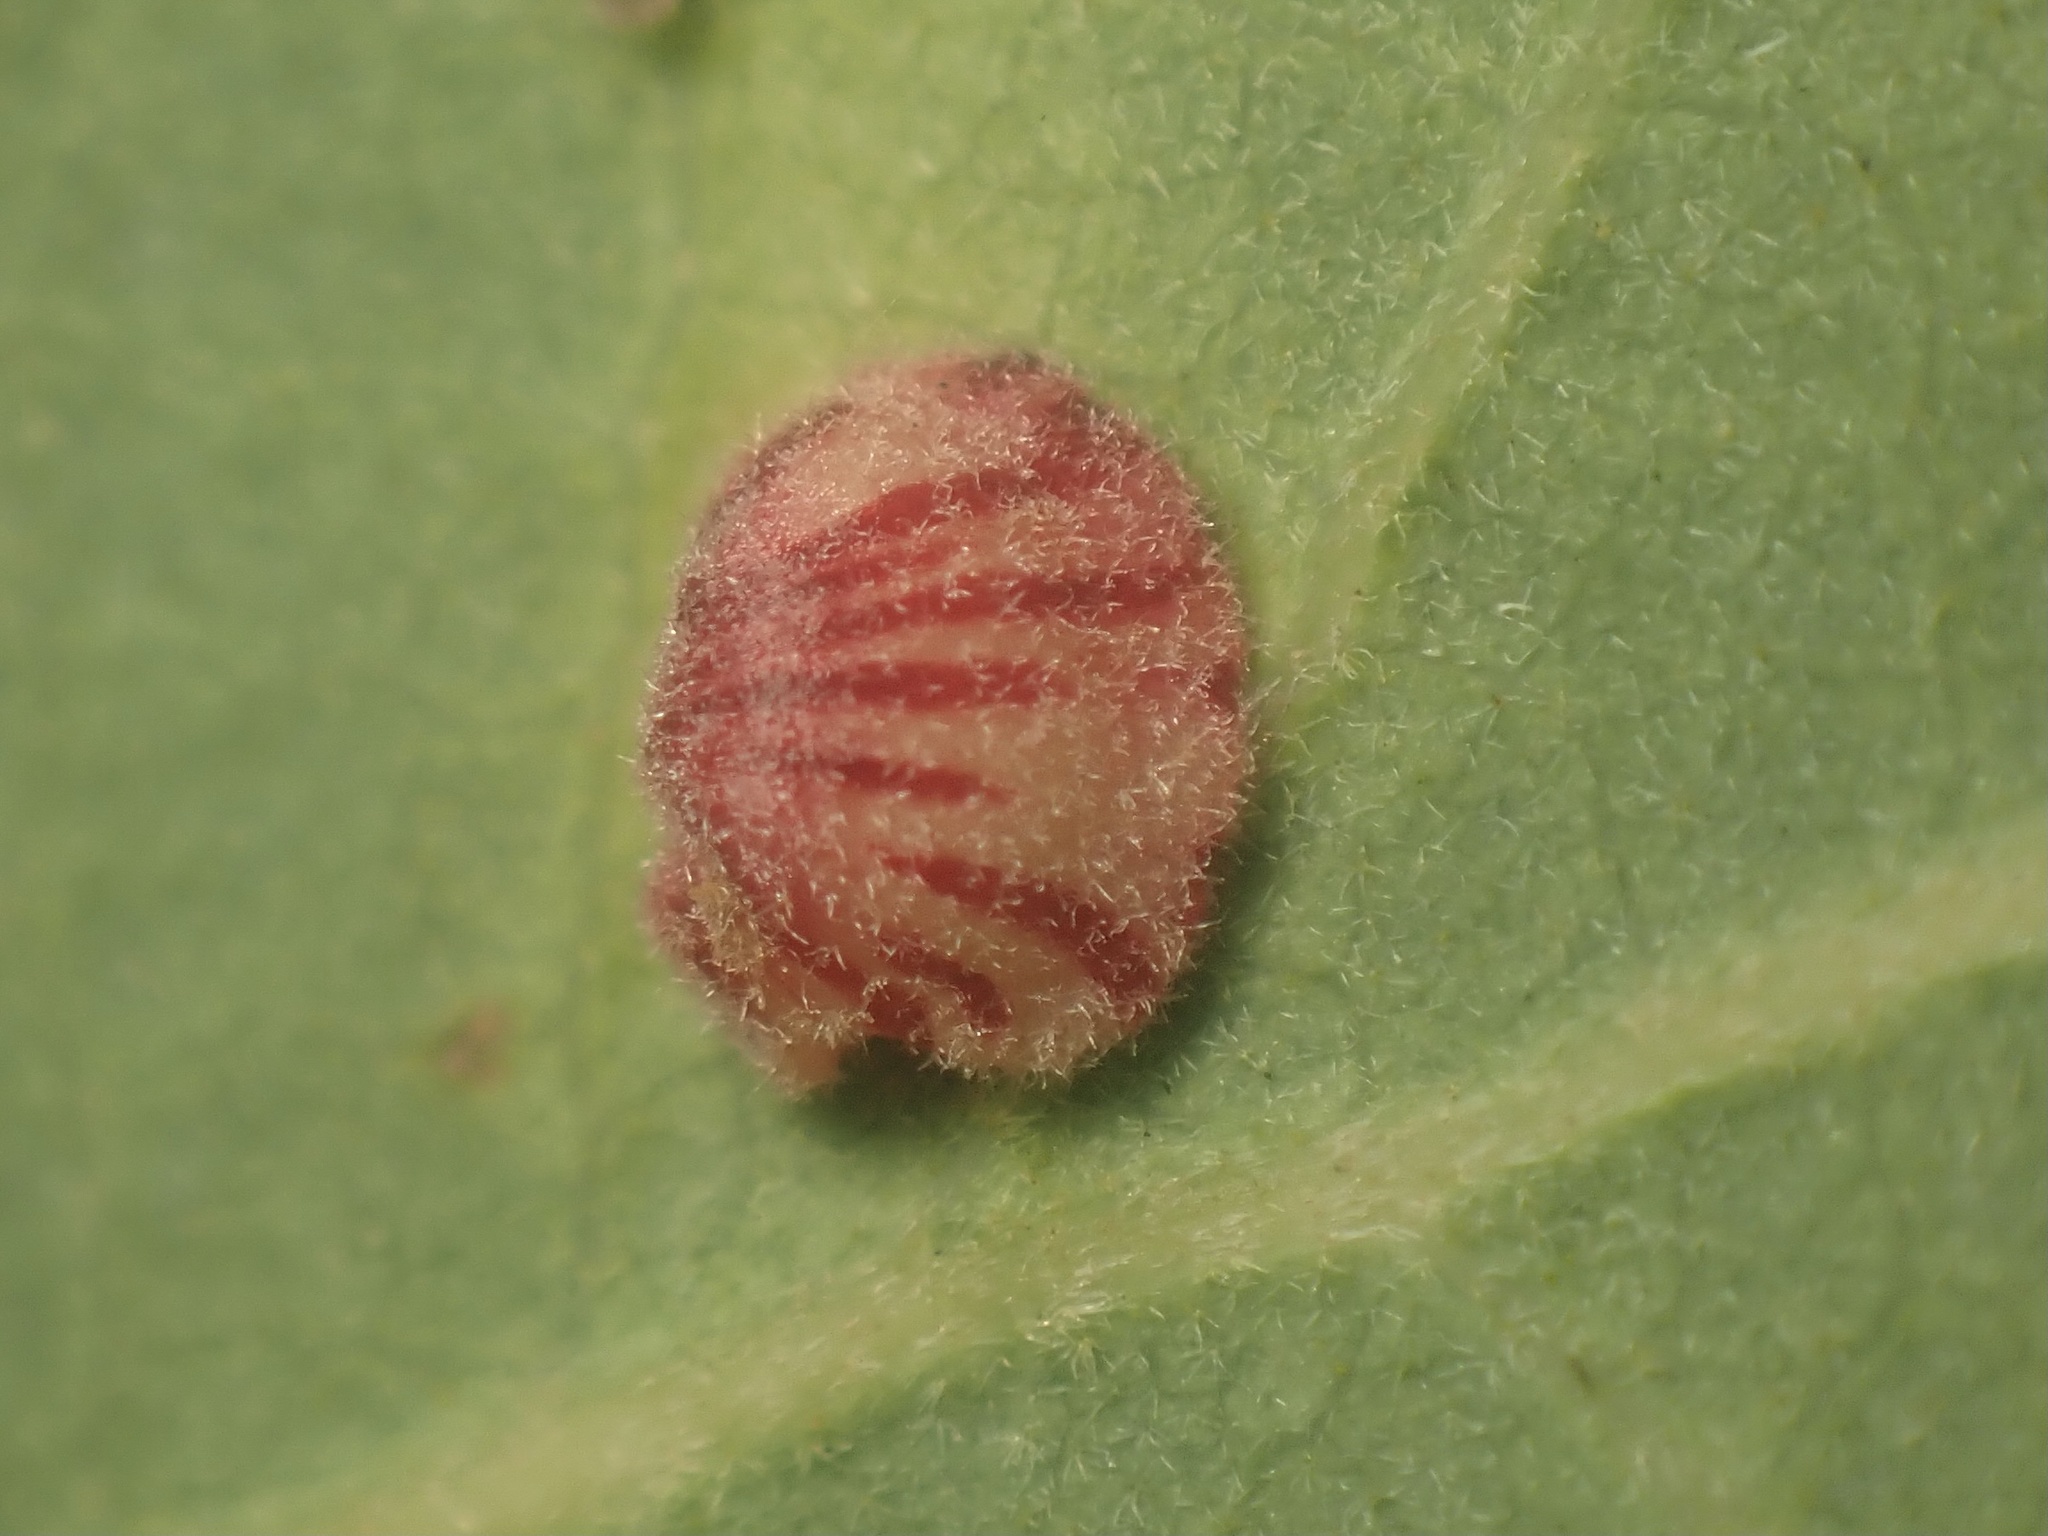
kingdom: Animalia
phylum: Arthropoda
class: Insecta
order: Hymenoptera
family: Cynipidae
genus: Andricus
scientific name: Andricus
